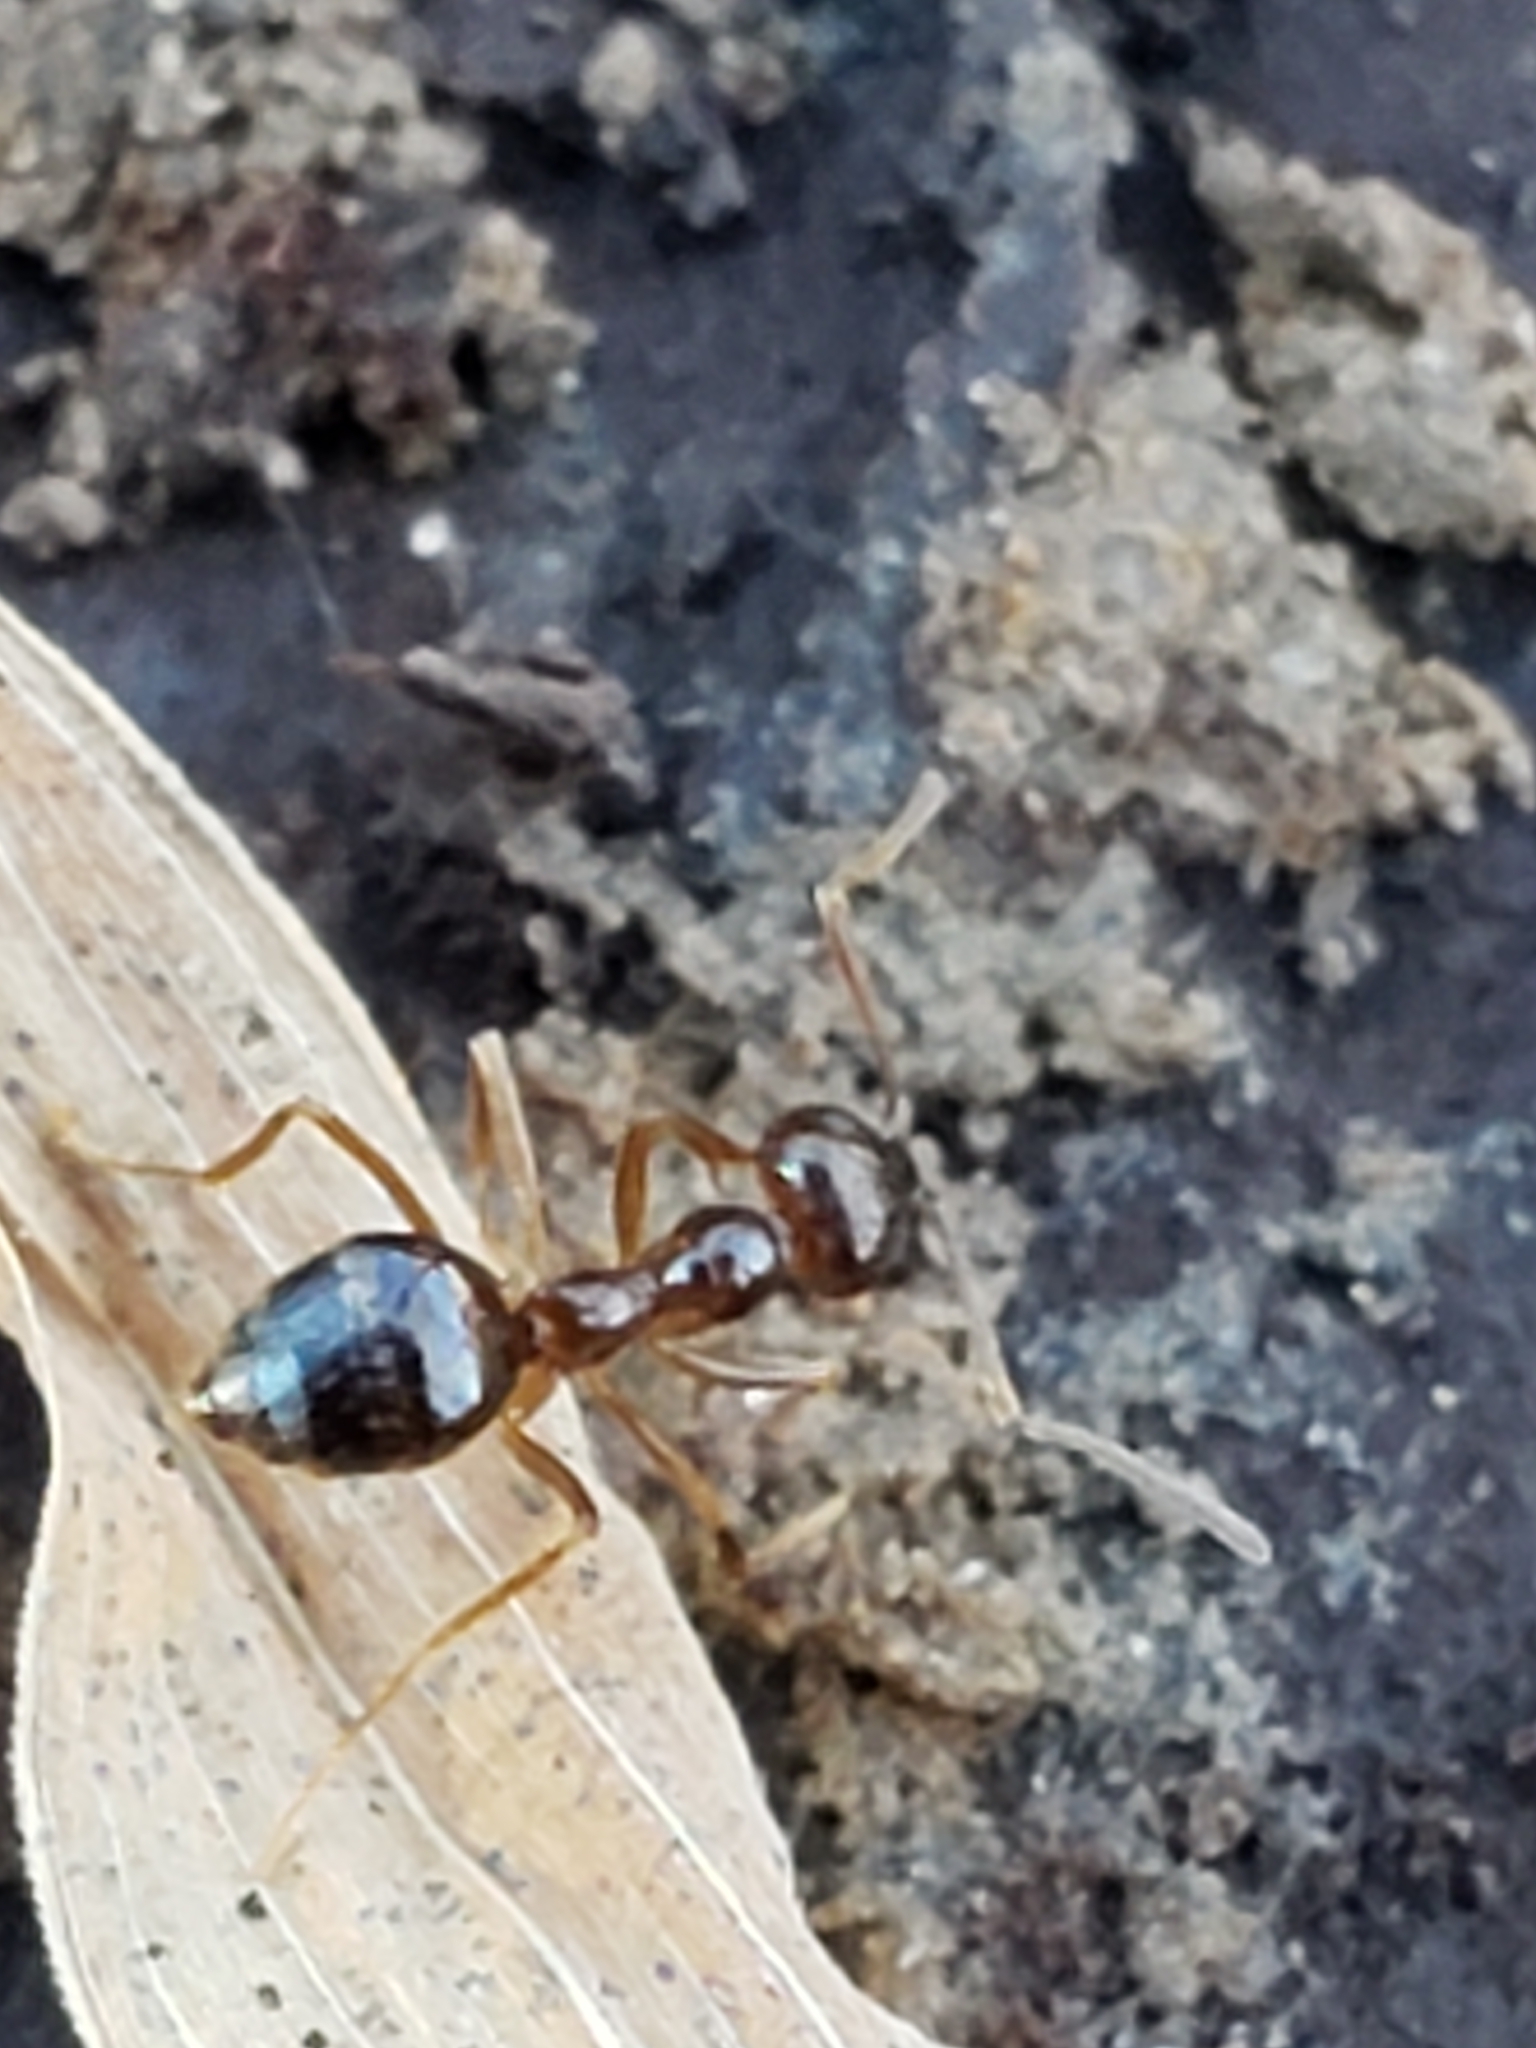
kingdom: Animalia
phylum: Arthropoda
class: Insecta
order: Hymenoptera
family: Formicidae
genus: Prenolepis
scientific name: Prenolepis imparis
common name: Small honey ant
